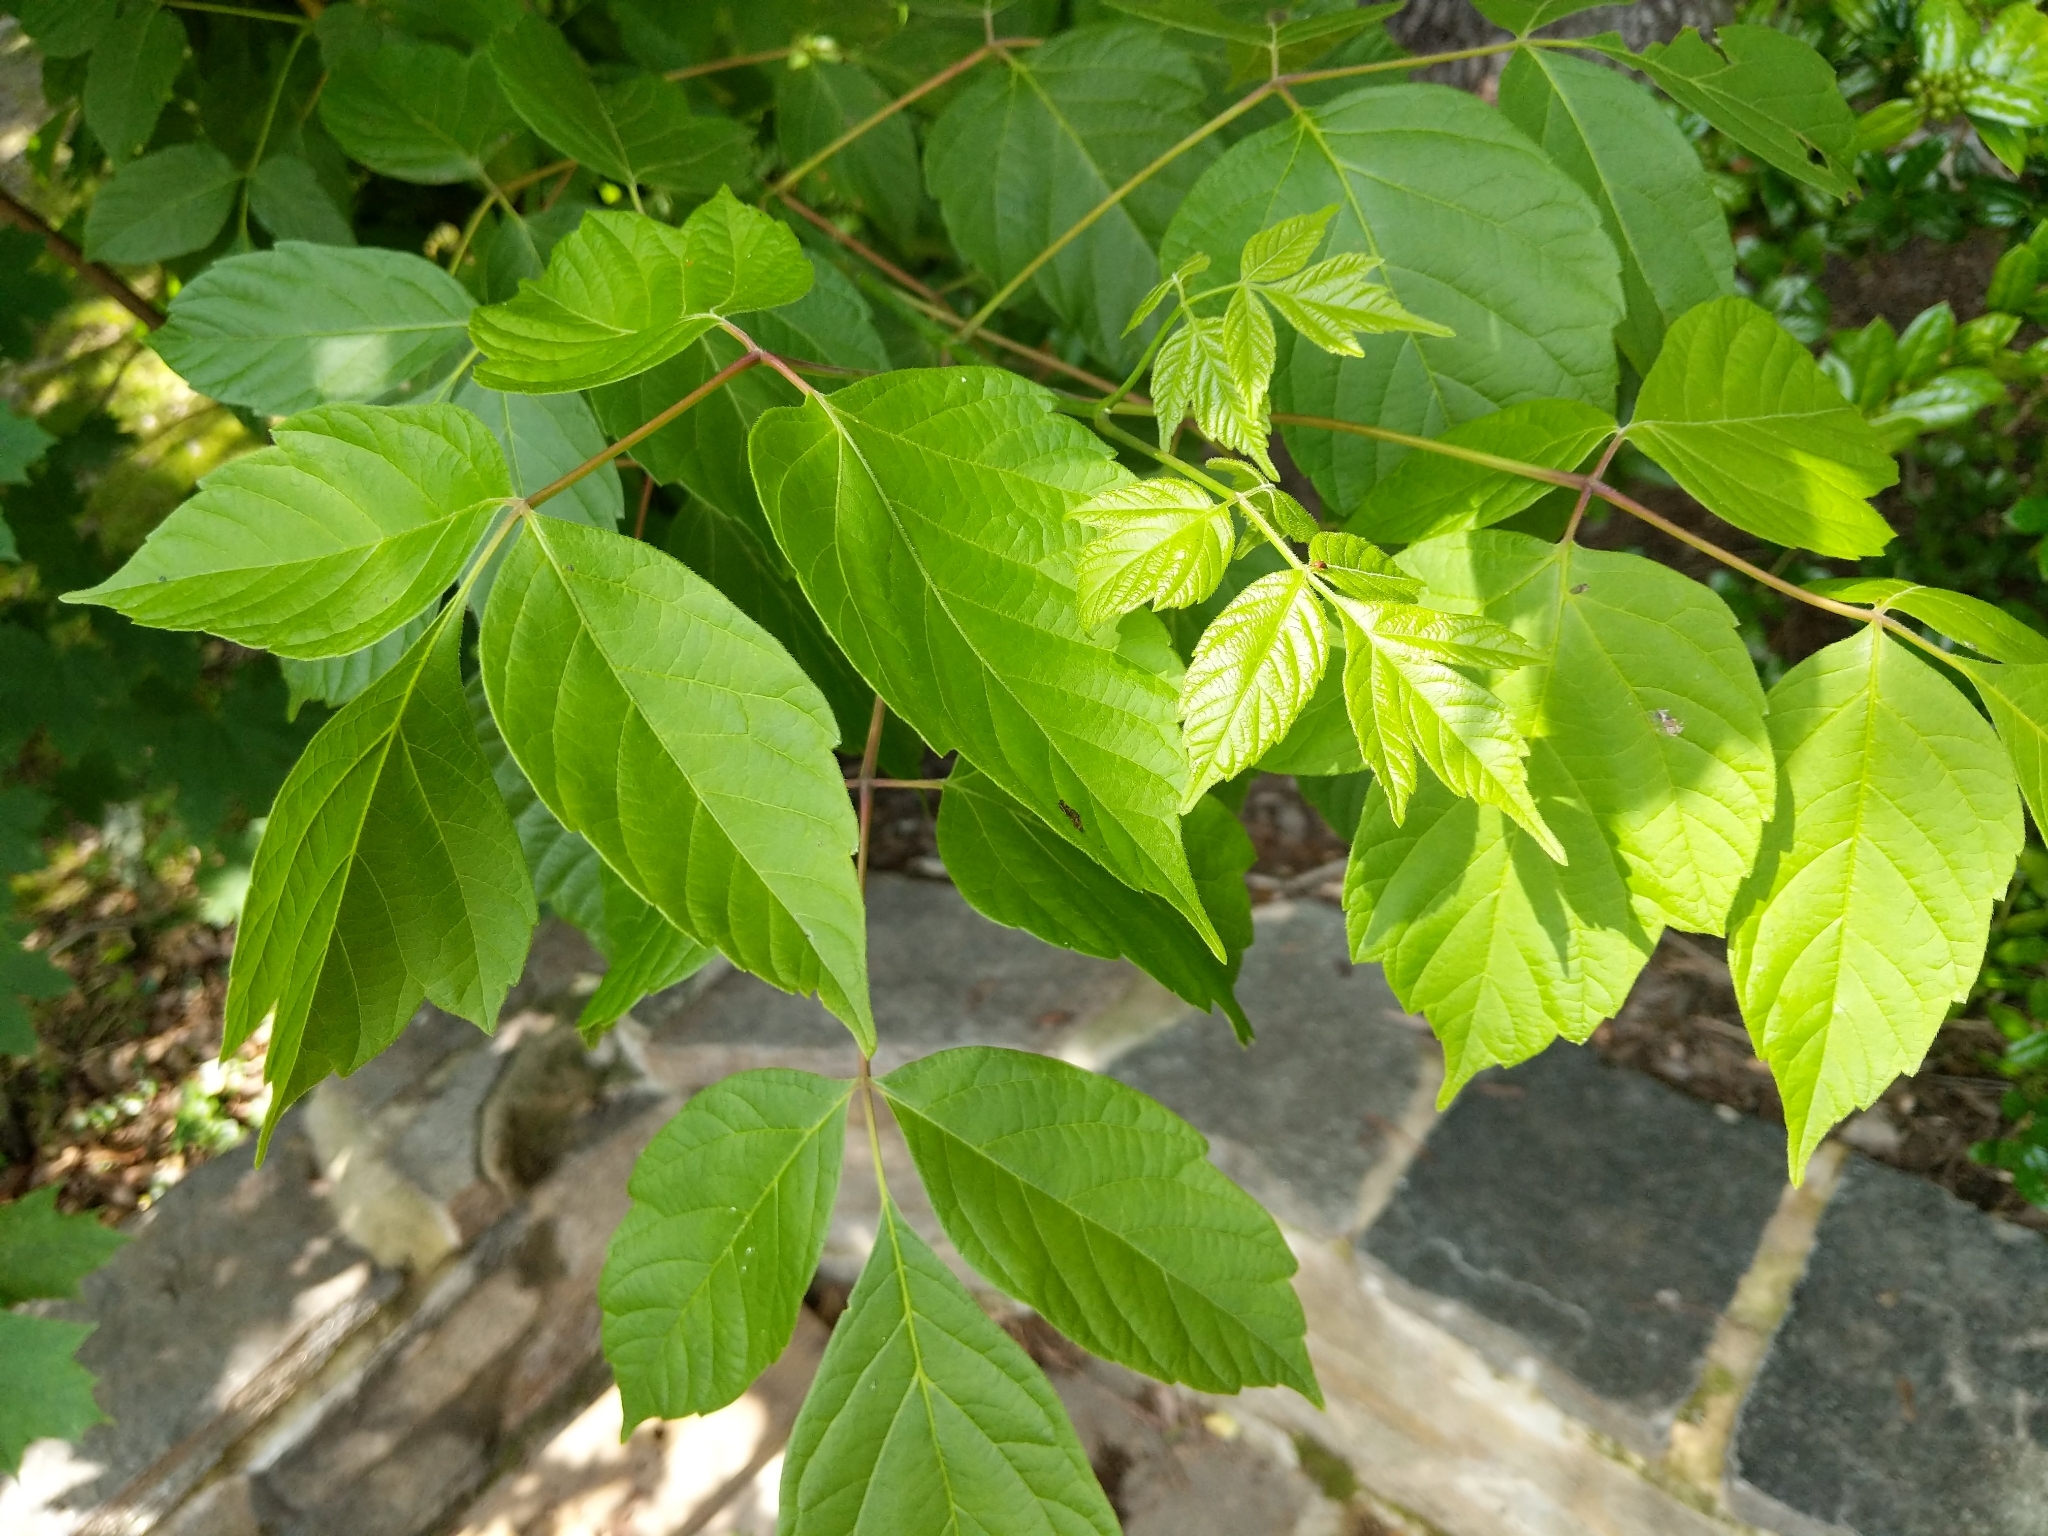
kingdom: Plantae
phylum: Tracheophyta
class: Magnoliopsida
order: Sapindales
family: Sapindaceae
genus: Acer
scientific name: Acer negundo
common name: Ashleaf maple
